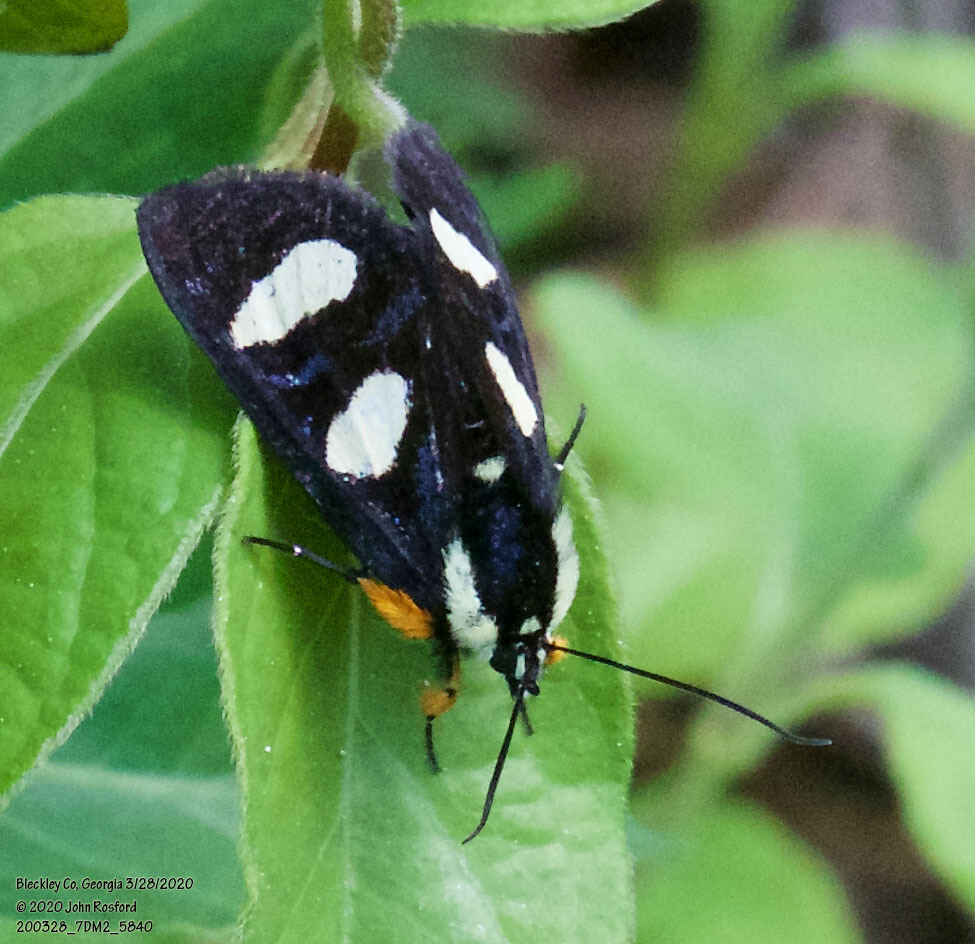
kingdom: Animalia
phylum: Arthropoda
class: Insecta
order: Lepidoptera
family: Noctuidae
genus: Alypia
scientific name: Alypia octomaculata
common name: Eight-spotted forester
